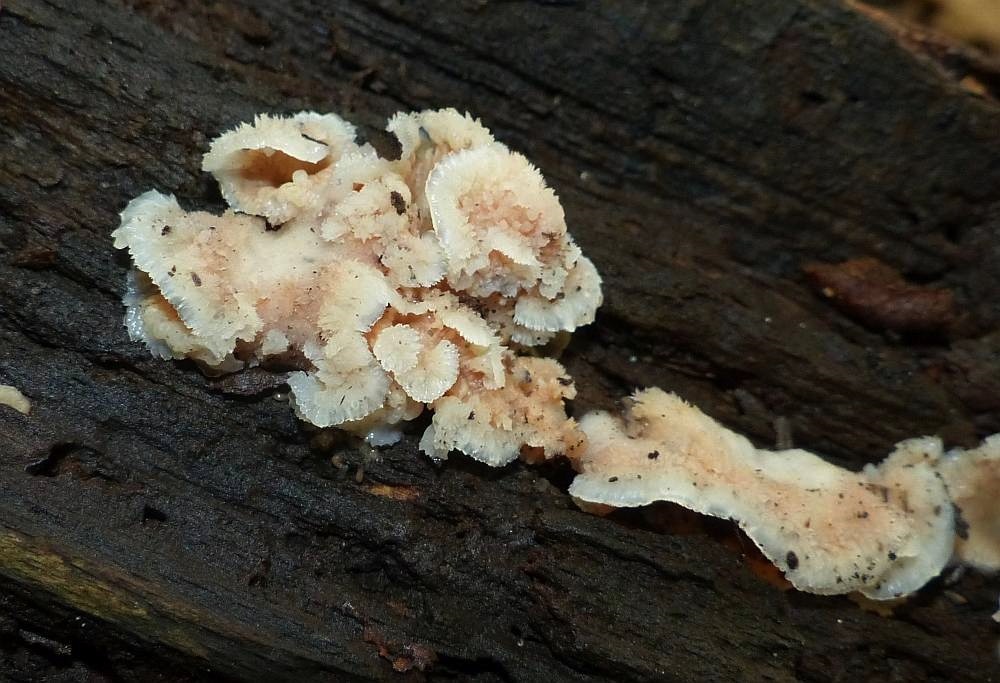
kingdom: Fungi
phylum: Basidiomycota
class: Agaricomycetes
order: Polyporales
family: Meruliaceae
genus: Phlebia
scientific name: Phlebia tremellosa
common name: Jelly rot
